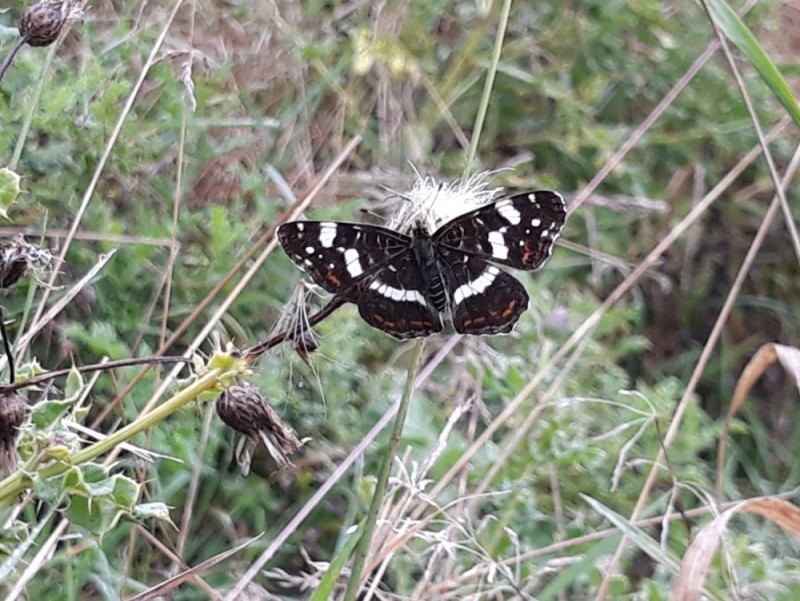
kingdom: Animalia
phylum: Arthropoda
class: Insecta
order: Lepidoptera
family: Nymphalidae
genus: Araschnia
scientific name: Araschnia levana
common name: Map butterfly
